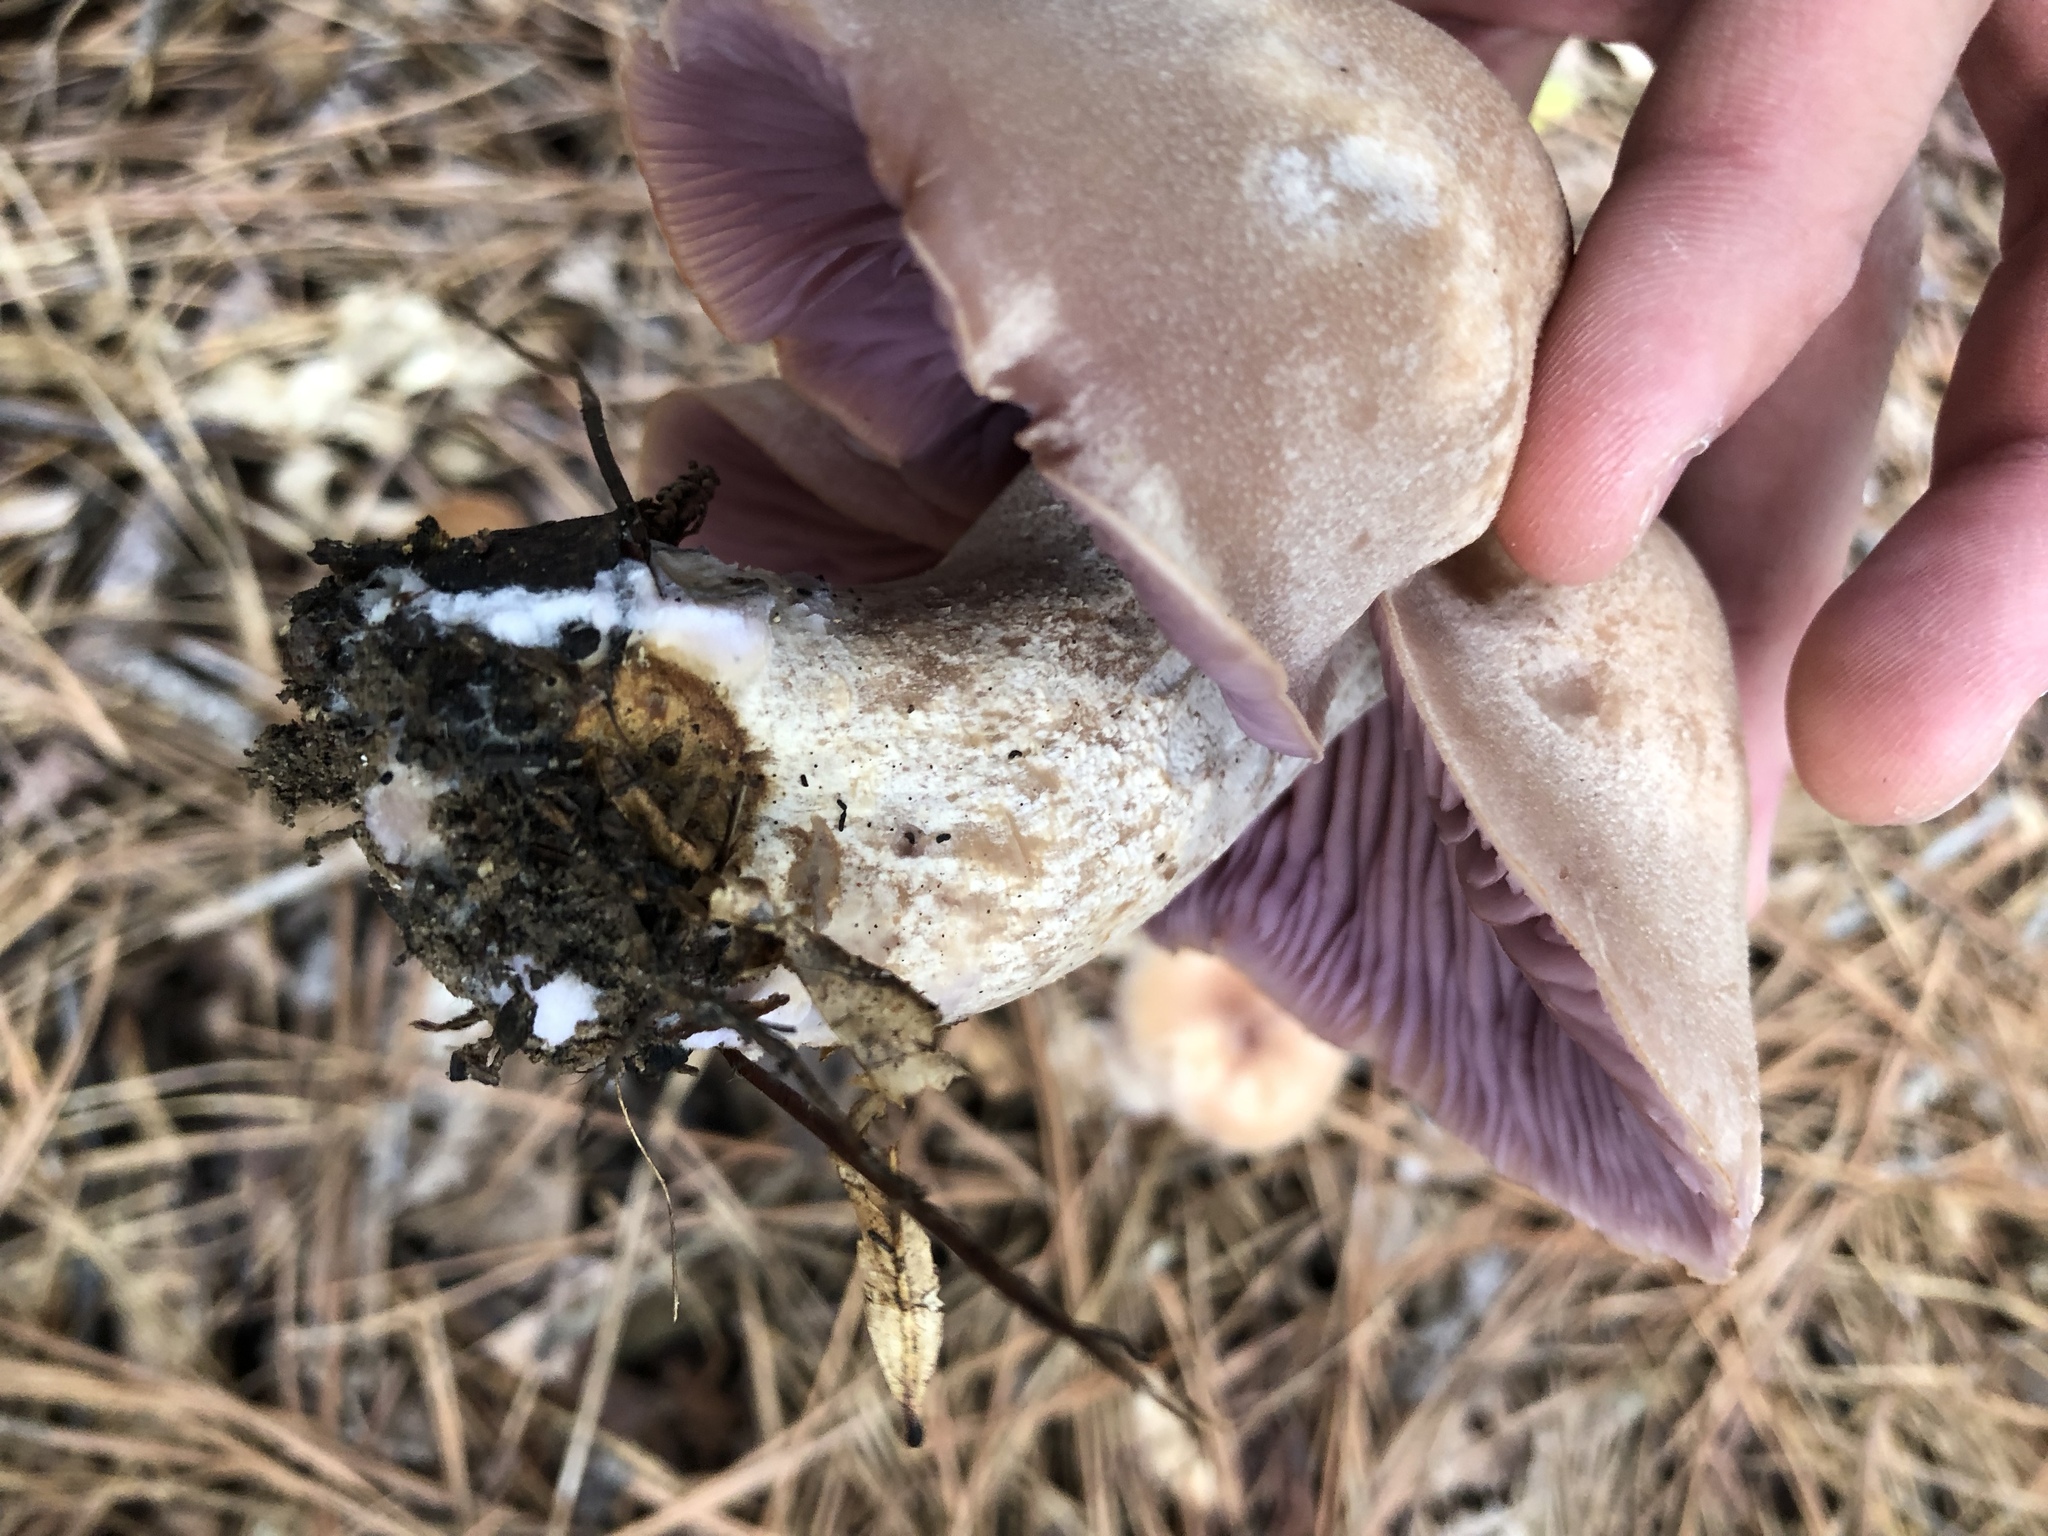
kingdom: Fungi
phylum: Basidiomycota
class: Agaricomycetes
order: Agaricales
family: Hydnangiaceae
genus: Laccaria
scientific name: Laccaria ochropurpurea
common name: Purple laccaria
